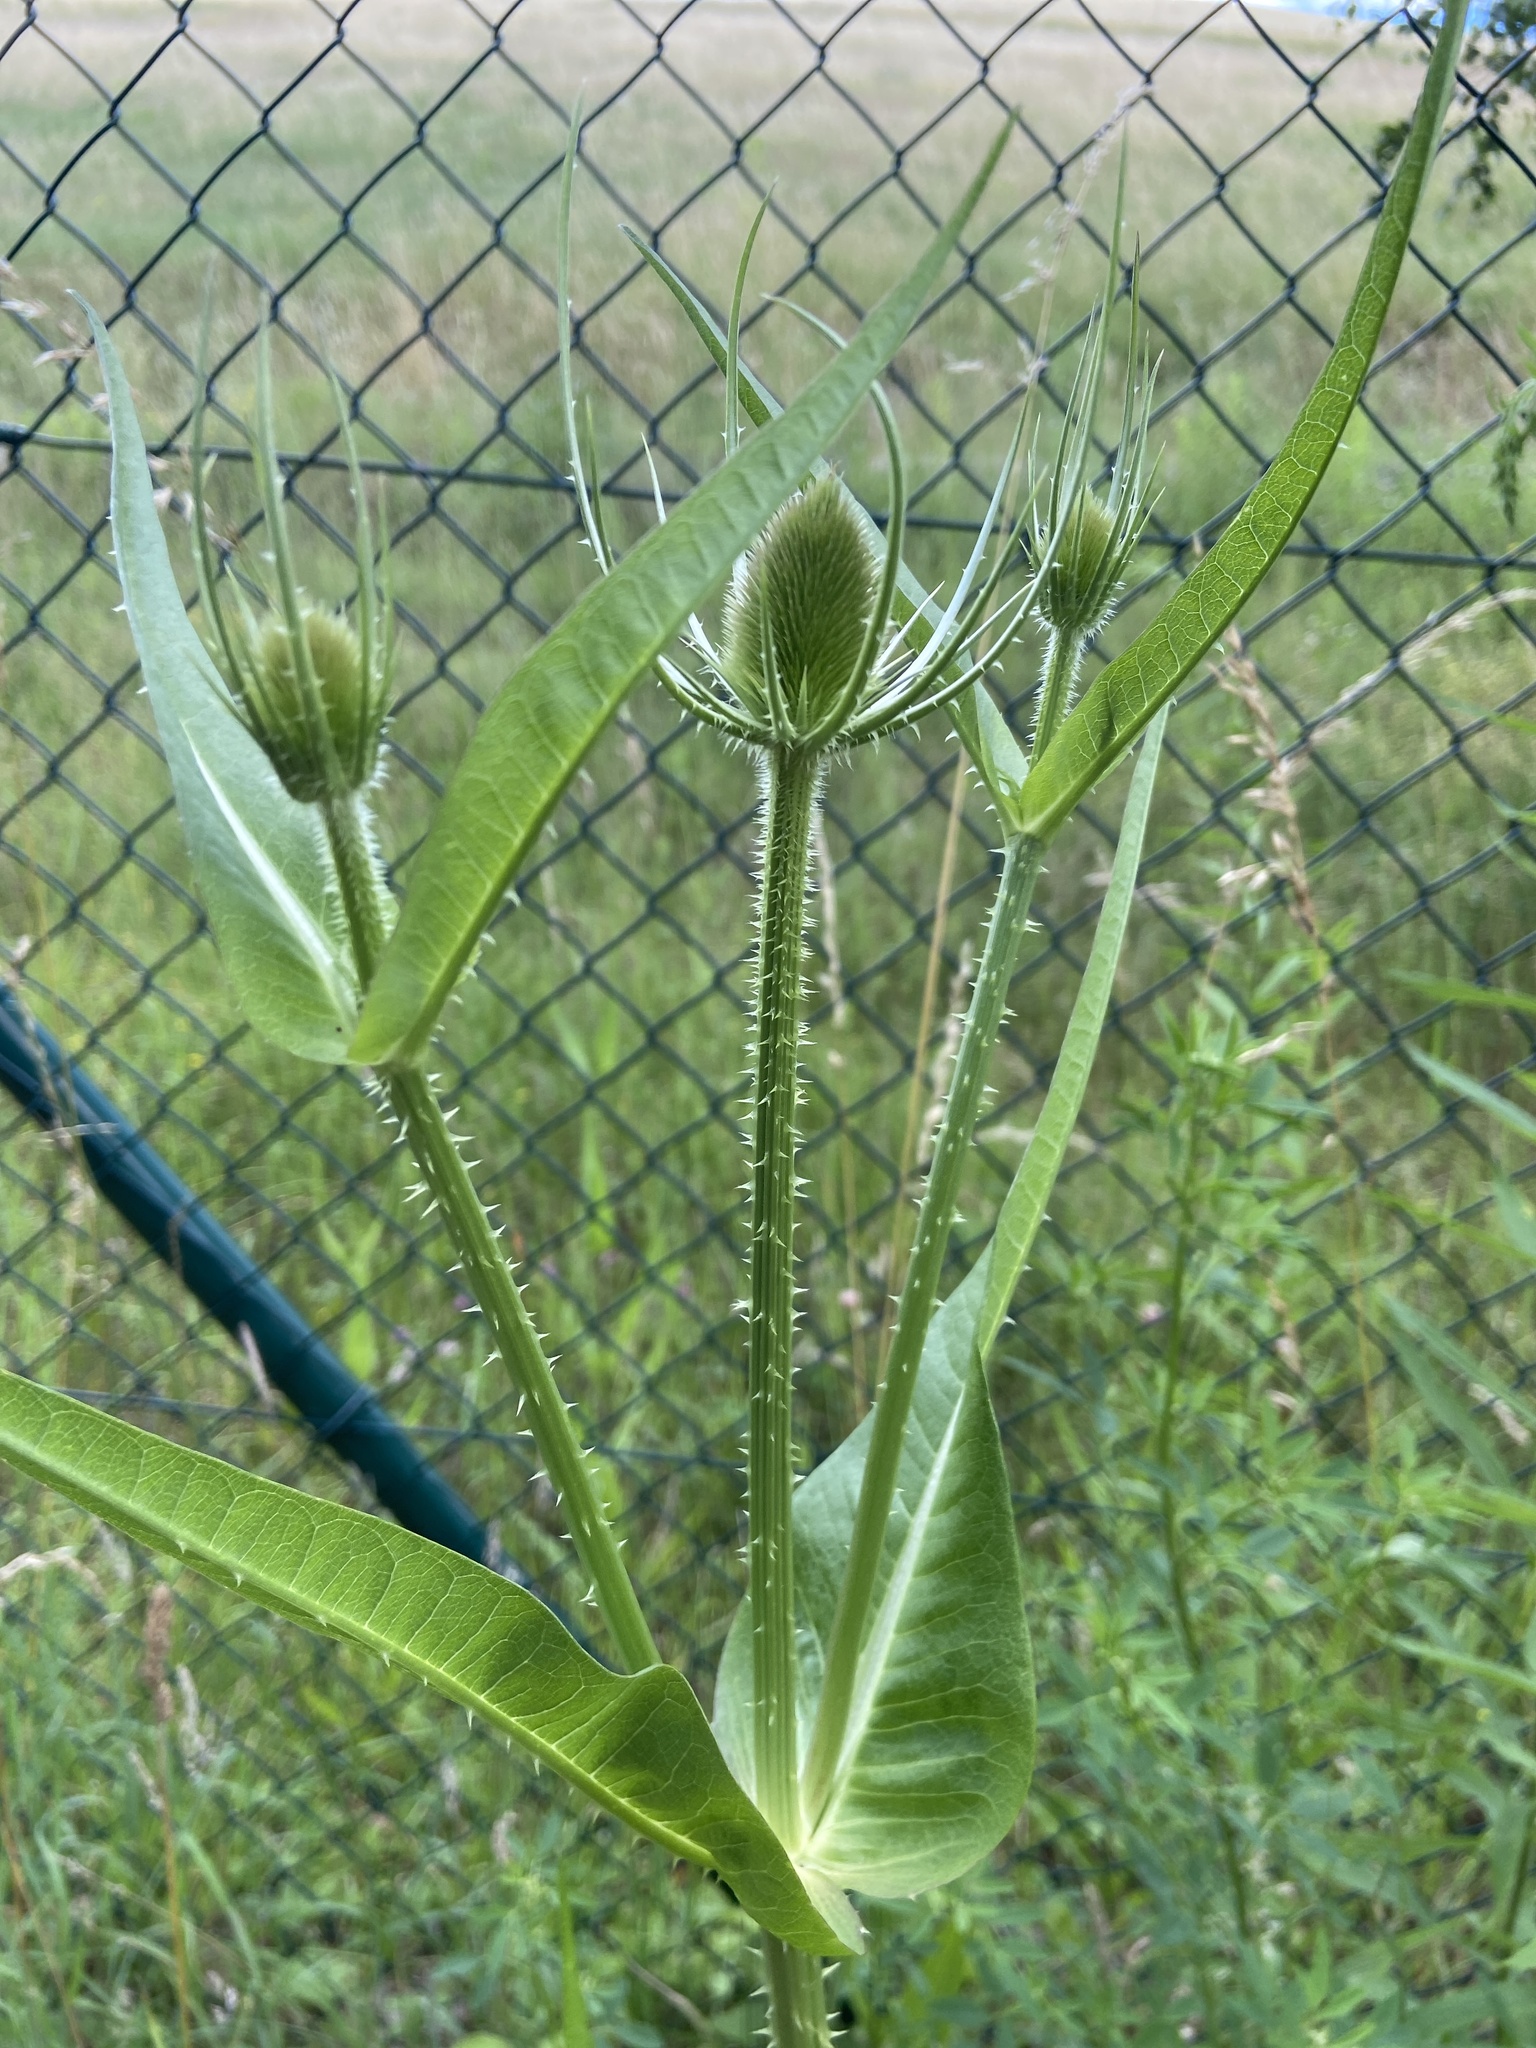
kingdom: Plantae
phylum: Tracheophyta
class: Magnoliopsida
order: Dipsacales
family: Caprifoliaceae
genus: Dipsacus
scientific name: Dipsacus fullonum
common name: Teasel
